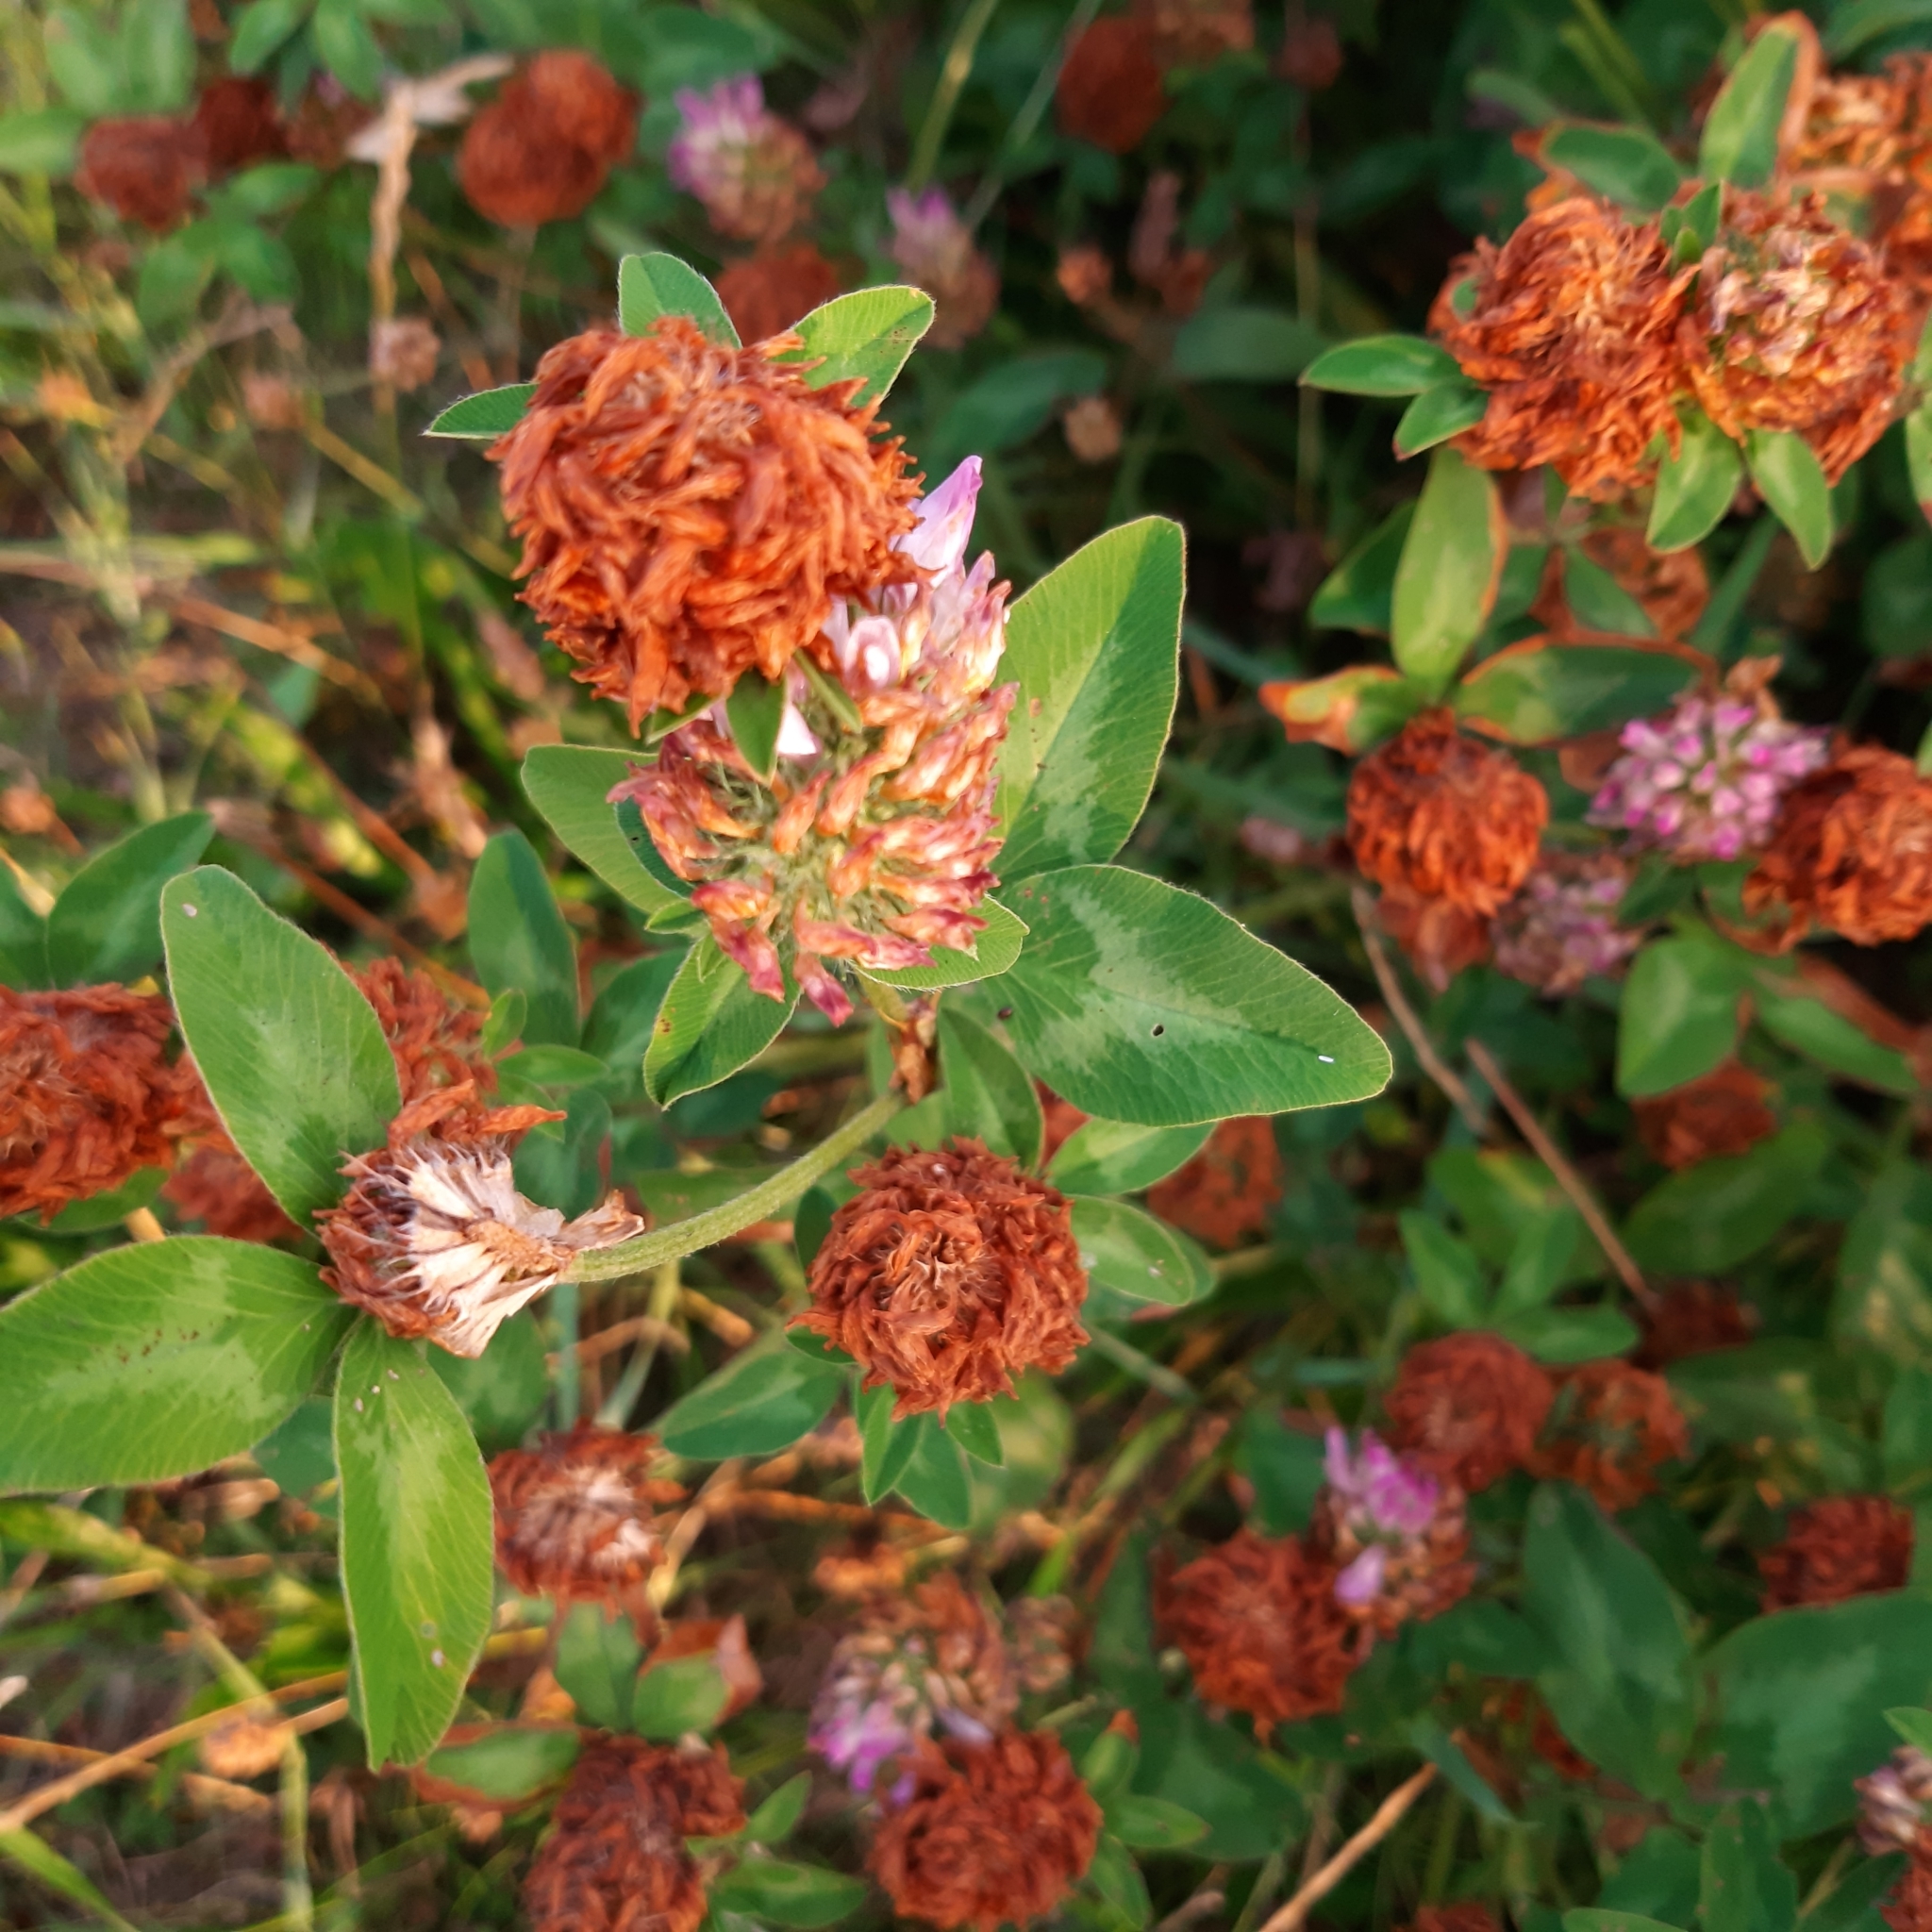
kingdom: Plantae
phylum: Tracheophyta
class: Magnoliopsida
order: Fabales
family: Fabaceae
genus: Trifolium
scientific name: Trifolium pratense
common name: Red clover
